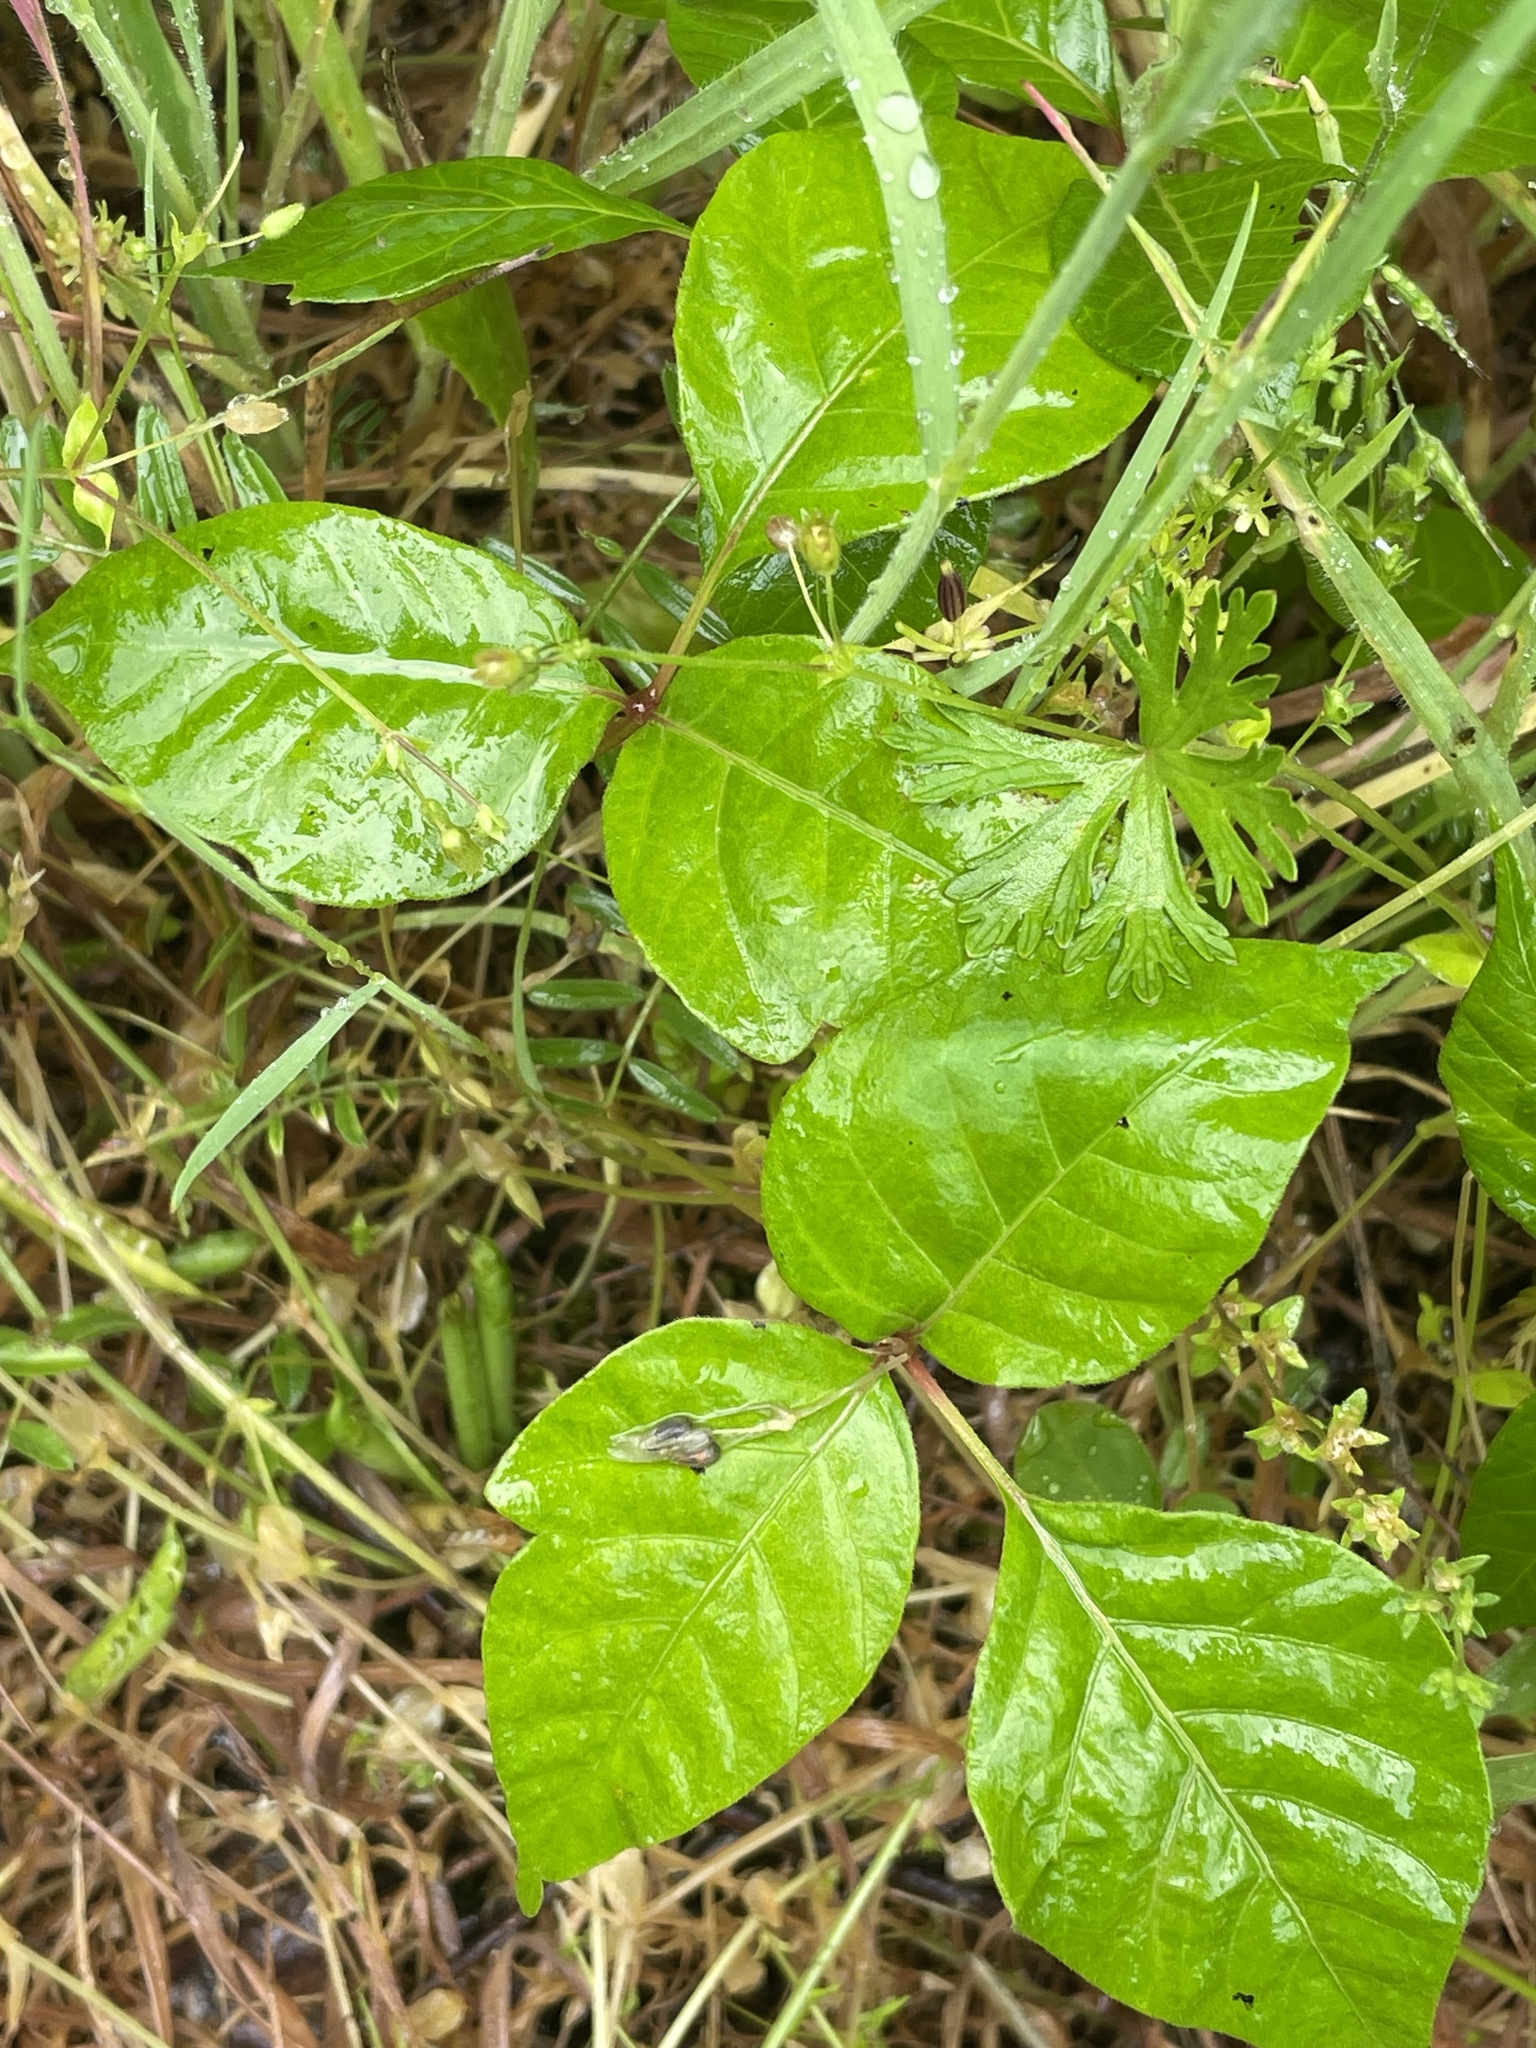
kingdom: Plantae
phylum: Tracheophyta
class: Magnoliopsida
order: Sapindales
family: Anacardiaceae
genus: Toxicodendron
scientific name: Toxicodendron radicans
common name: Poison ivy
